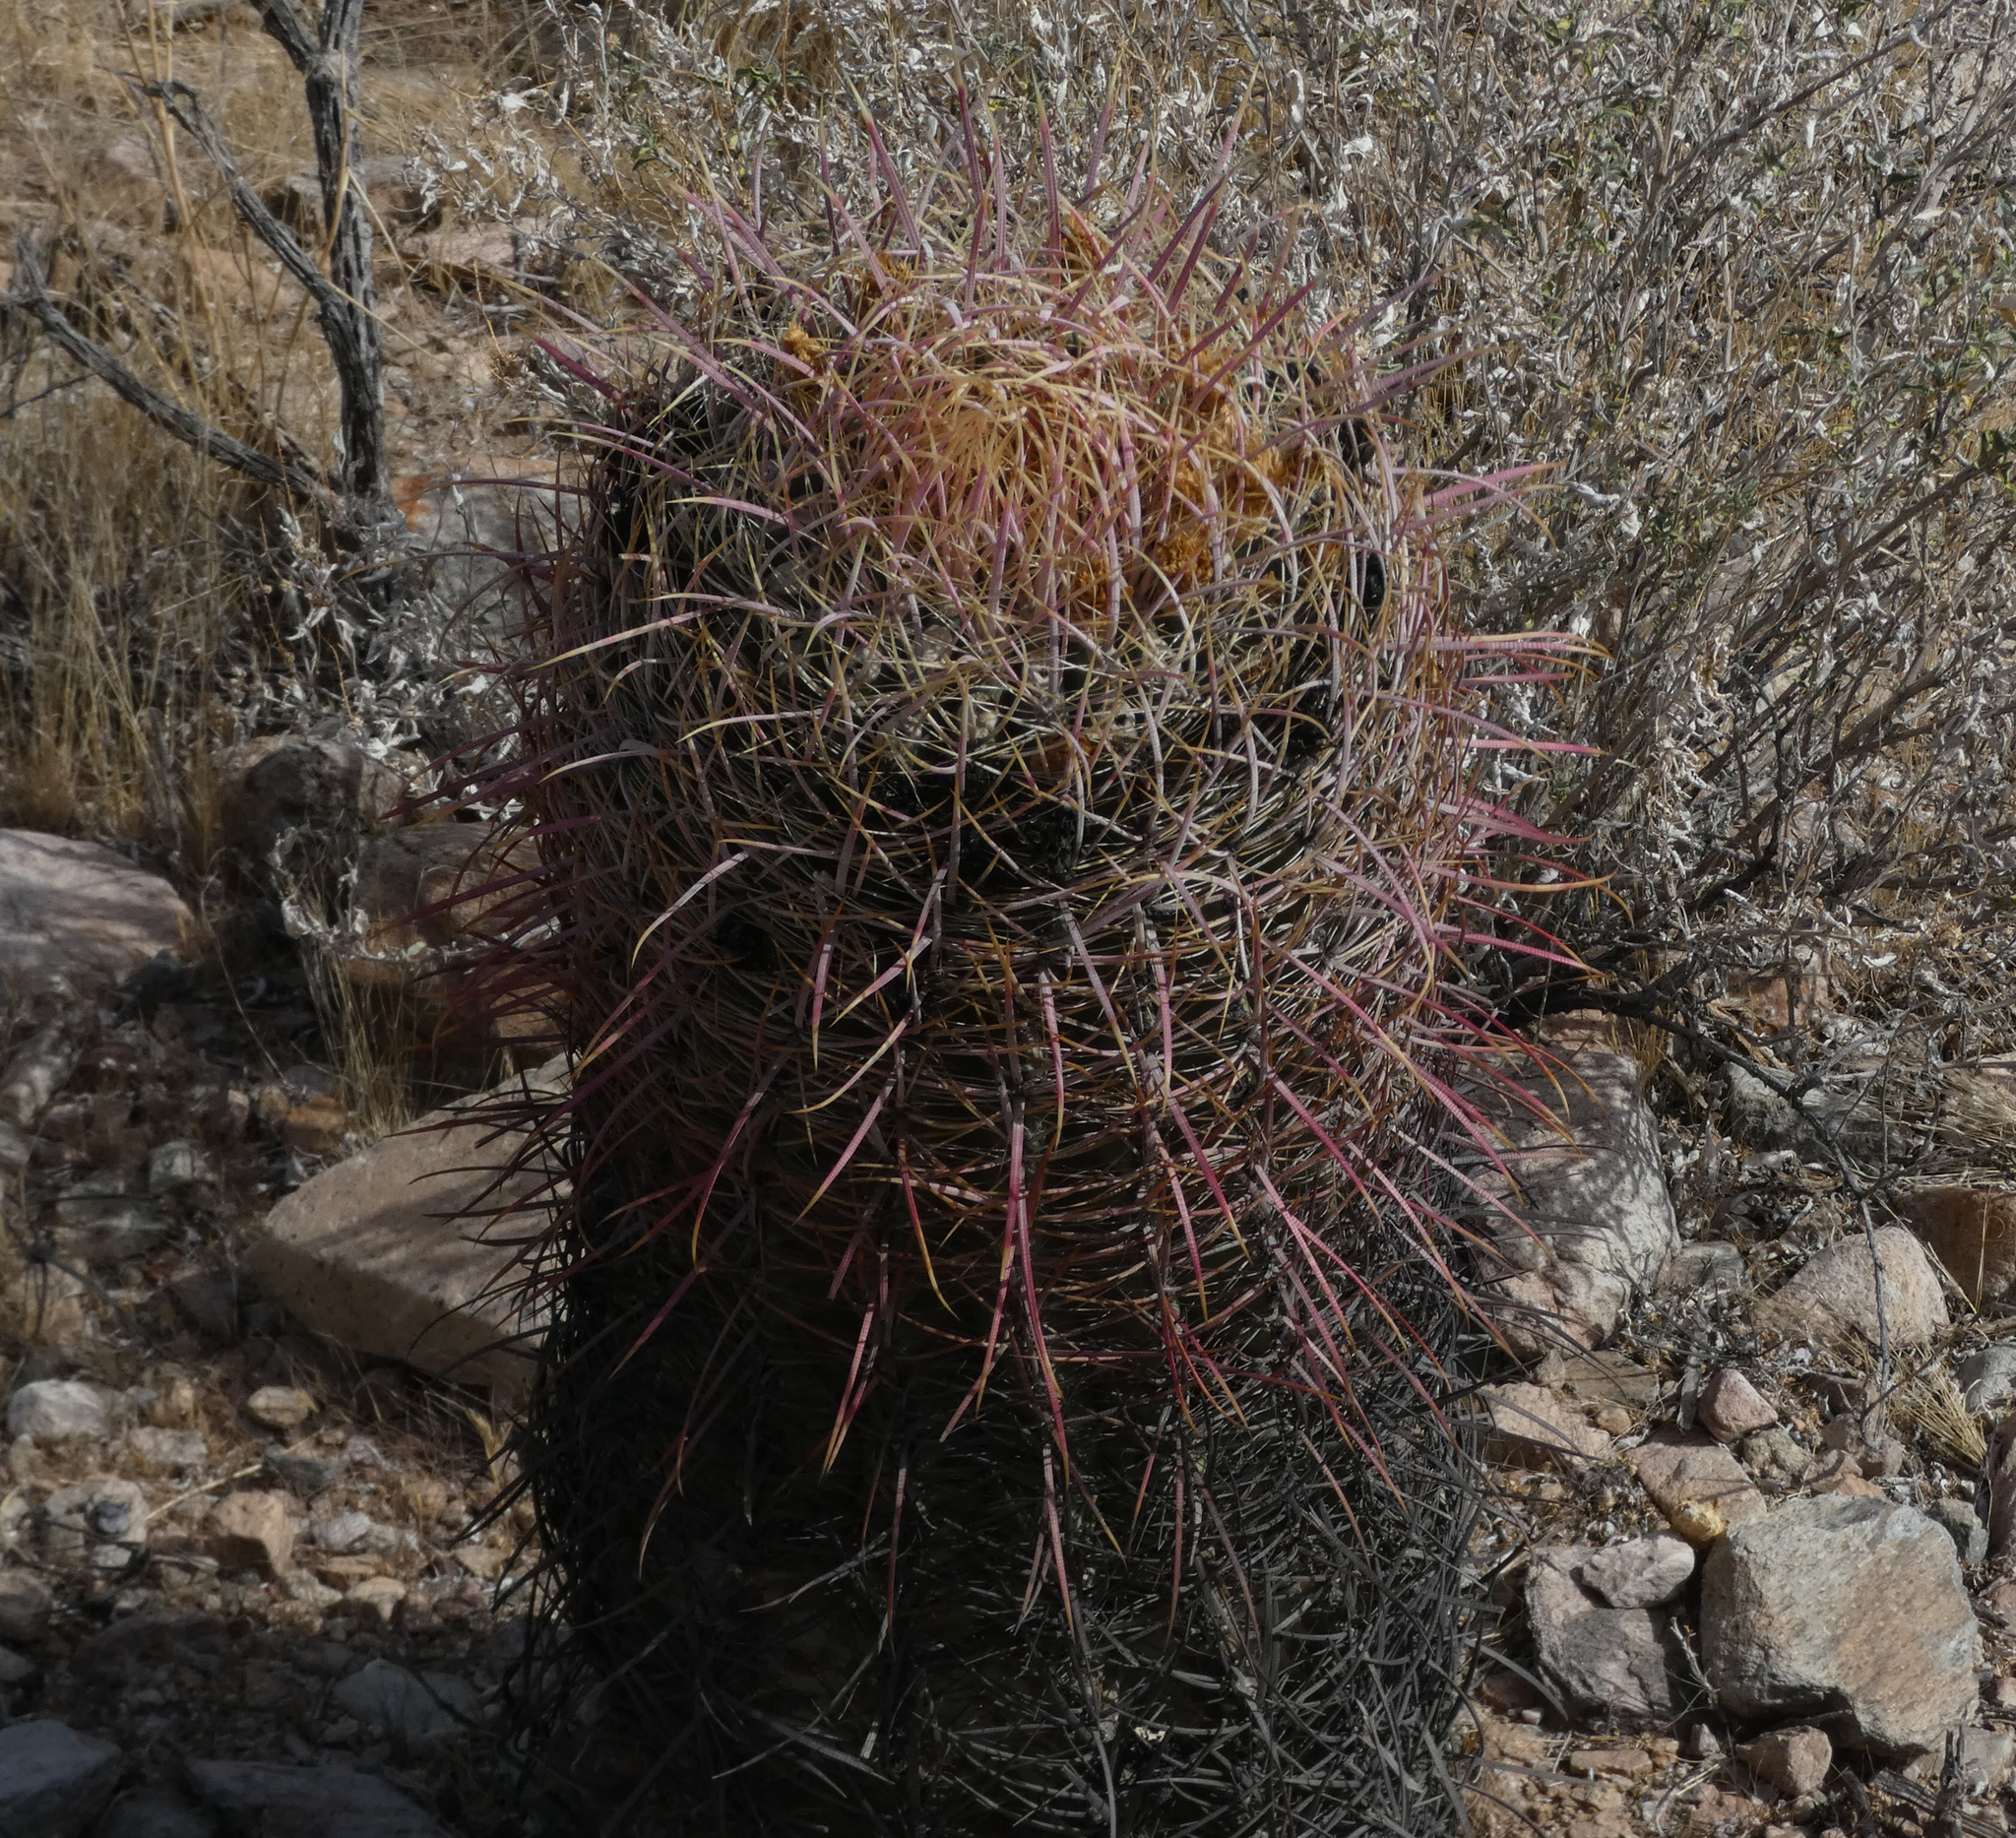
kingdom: Plantae
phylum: Tracheophyta
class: Magnoliopsida
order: Caryophyllales
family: Cactaceae
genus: Ferocactus
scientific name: Ferocactus cylindraceus
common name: California barrel cactus
